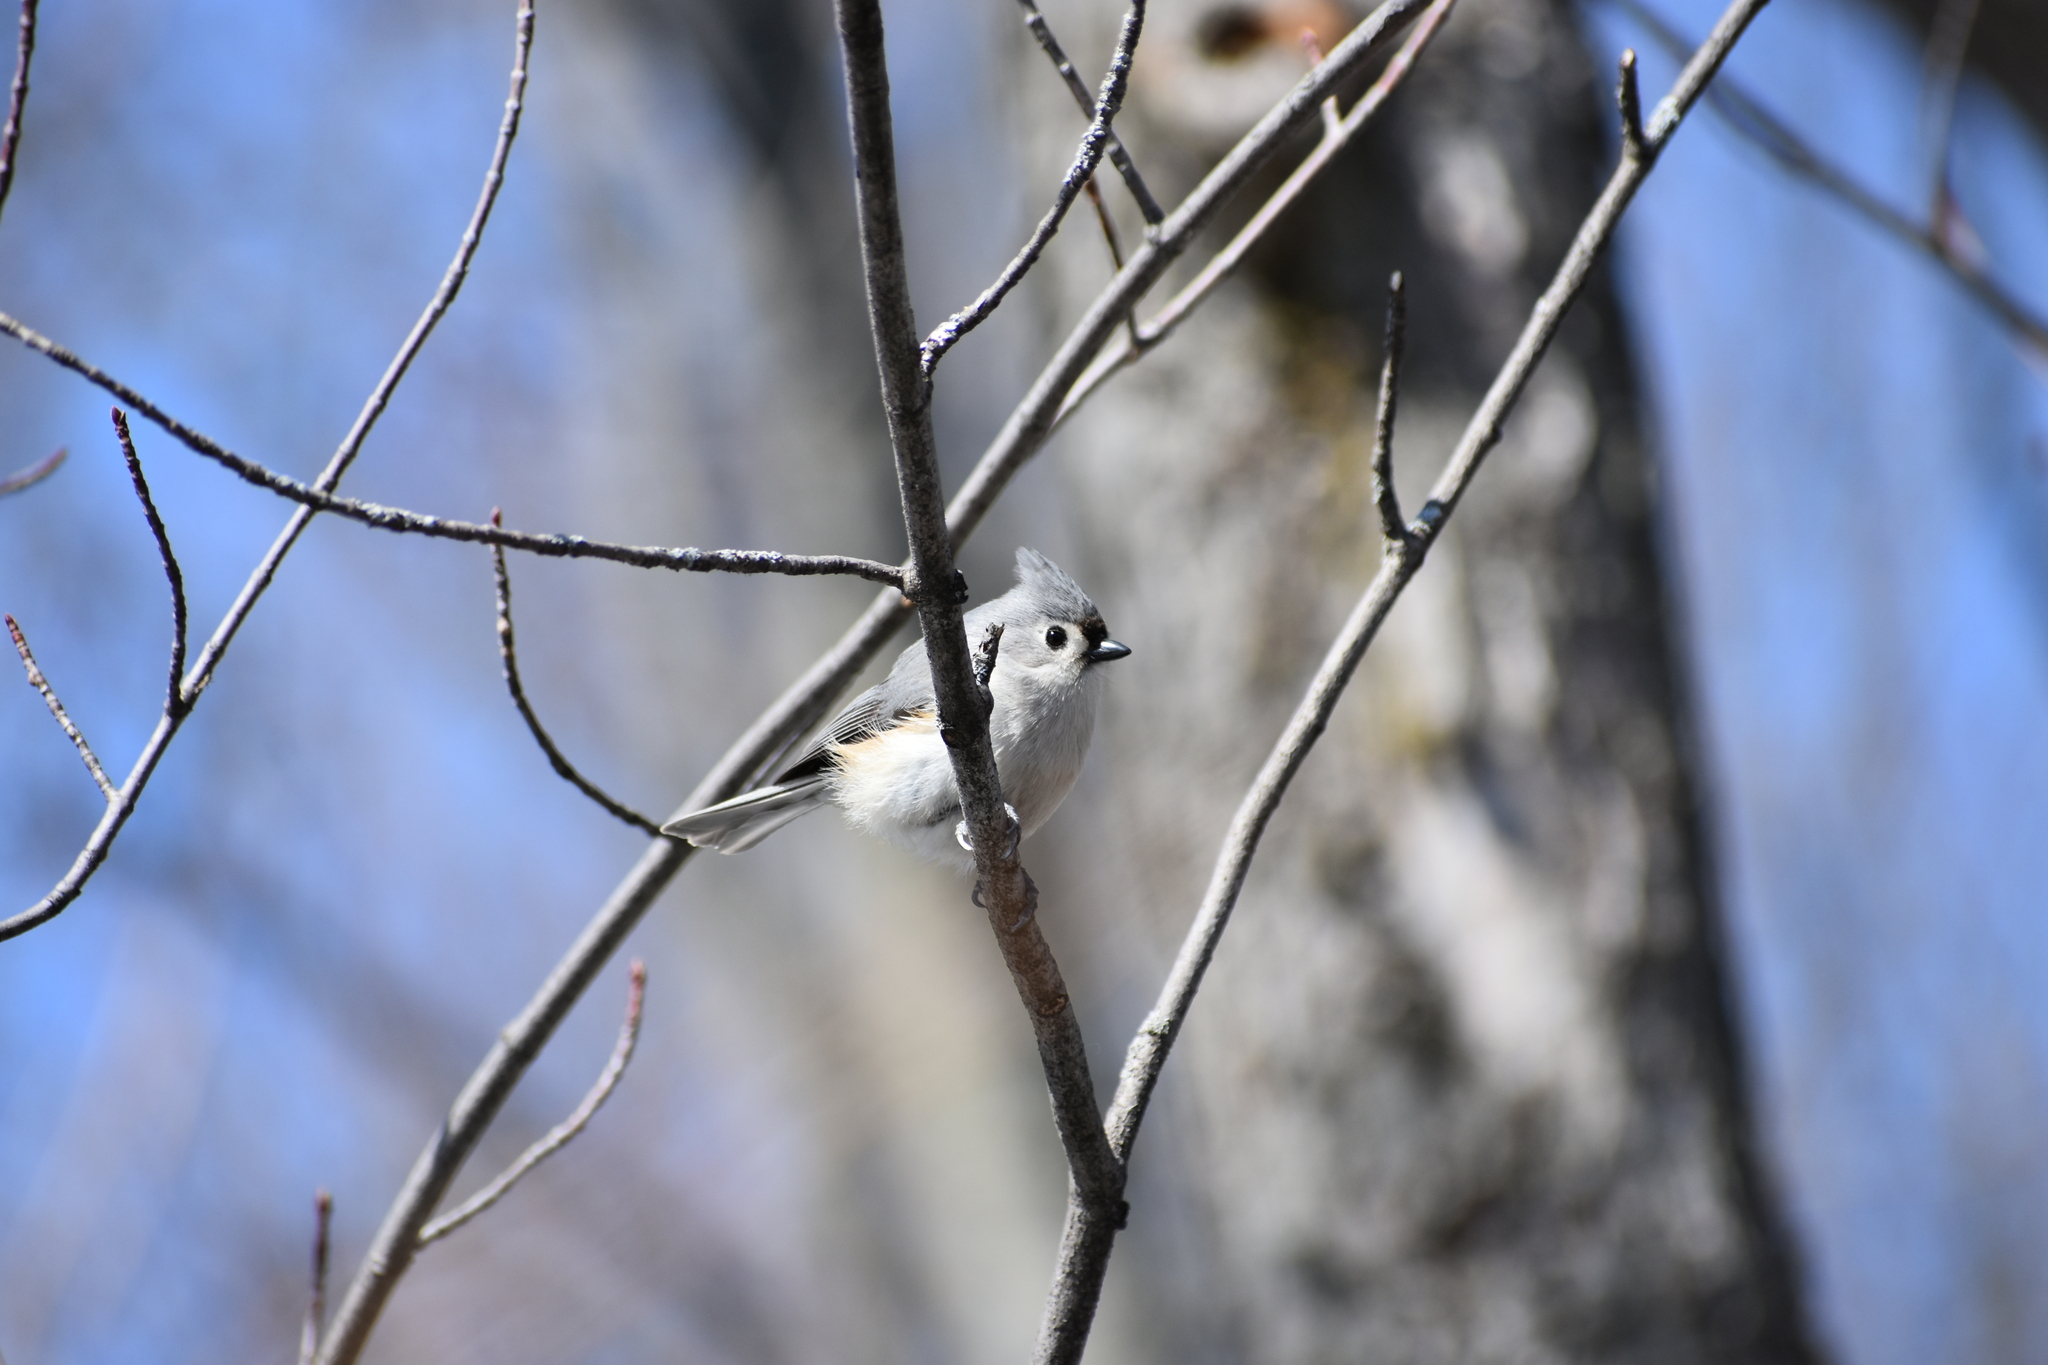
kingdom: Animalia
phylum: Chordata
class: Aves
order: Passeriformes
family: Paridae
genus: Baeolophus
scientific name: Baeolophus bicolor
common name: Tufted titmouse
